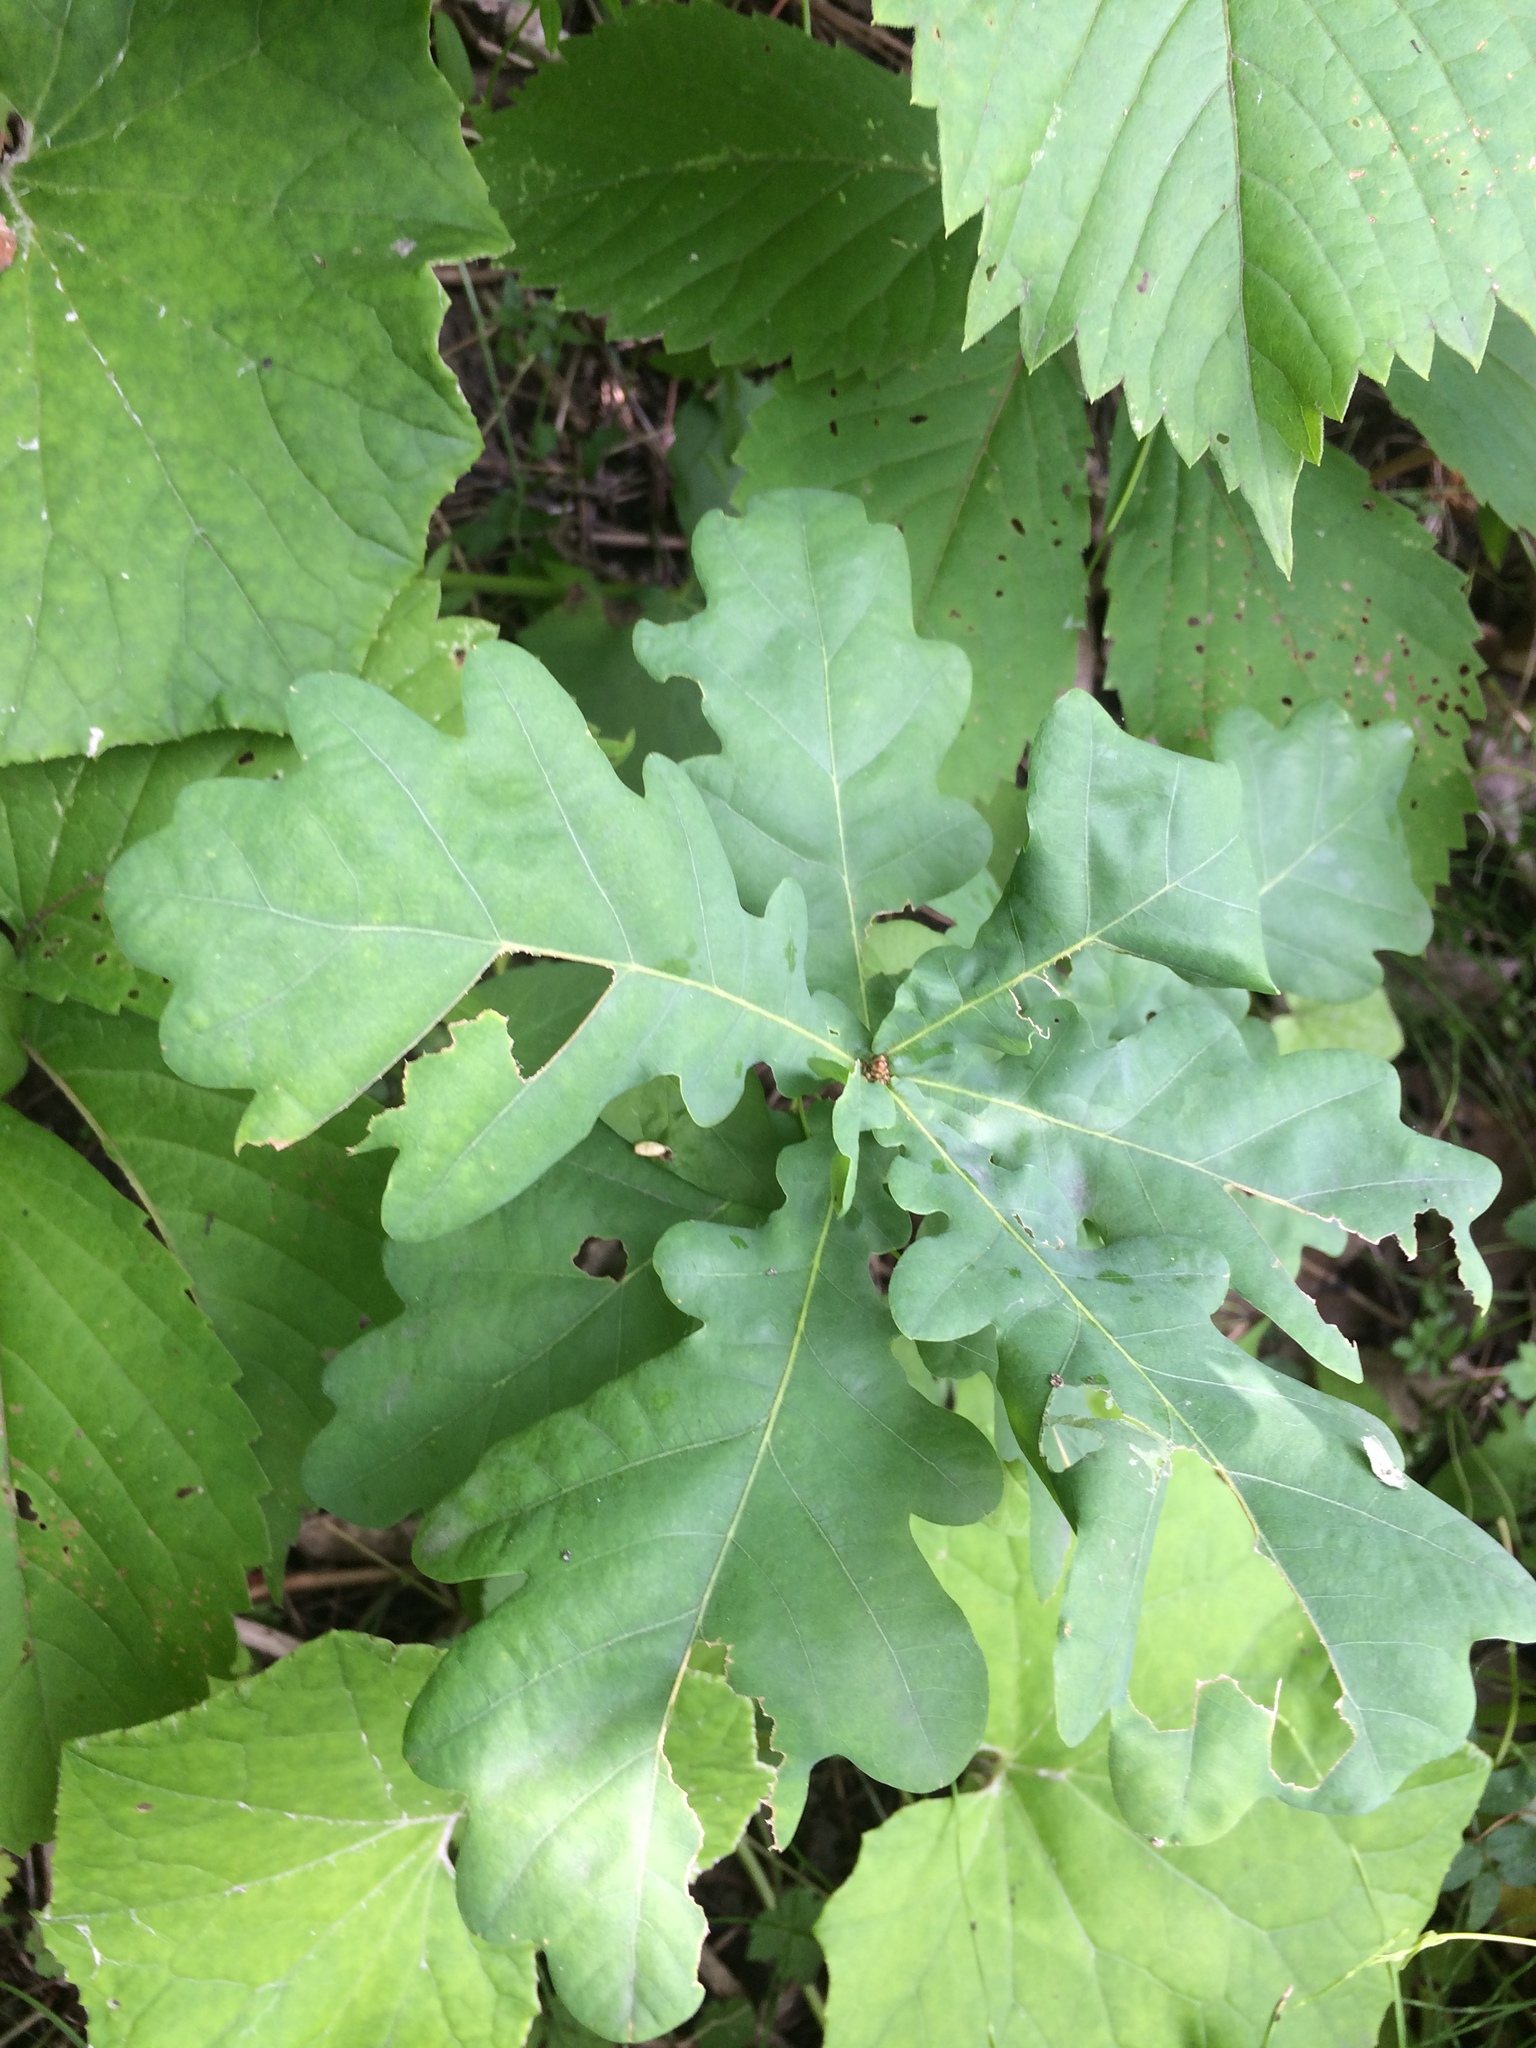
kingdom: Plantae
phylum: Tracheophyta
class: Magnoliopsida
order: Fagales
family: Fagaceae
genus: Quercus
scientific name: Quercus robur
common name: Pedunculate oak
